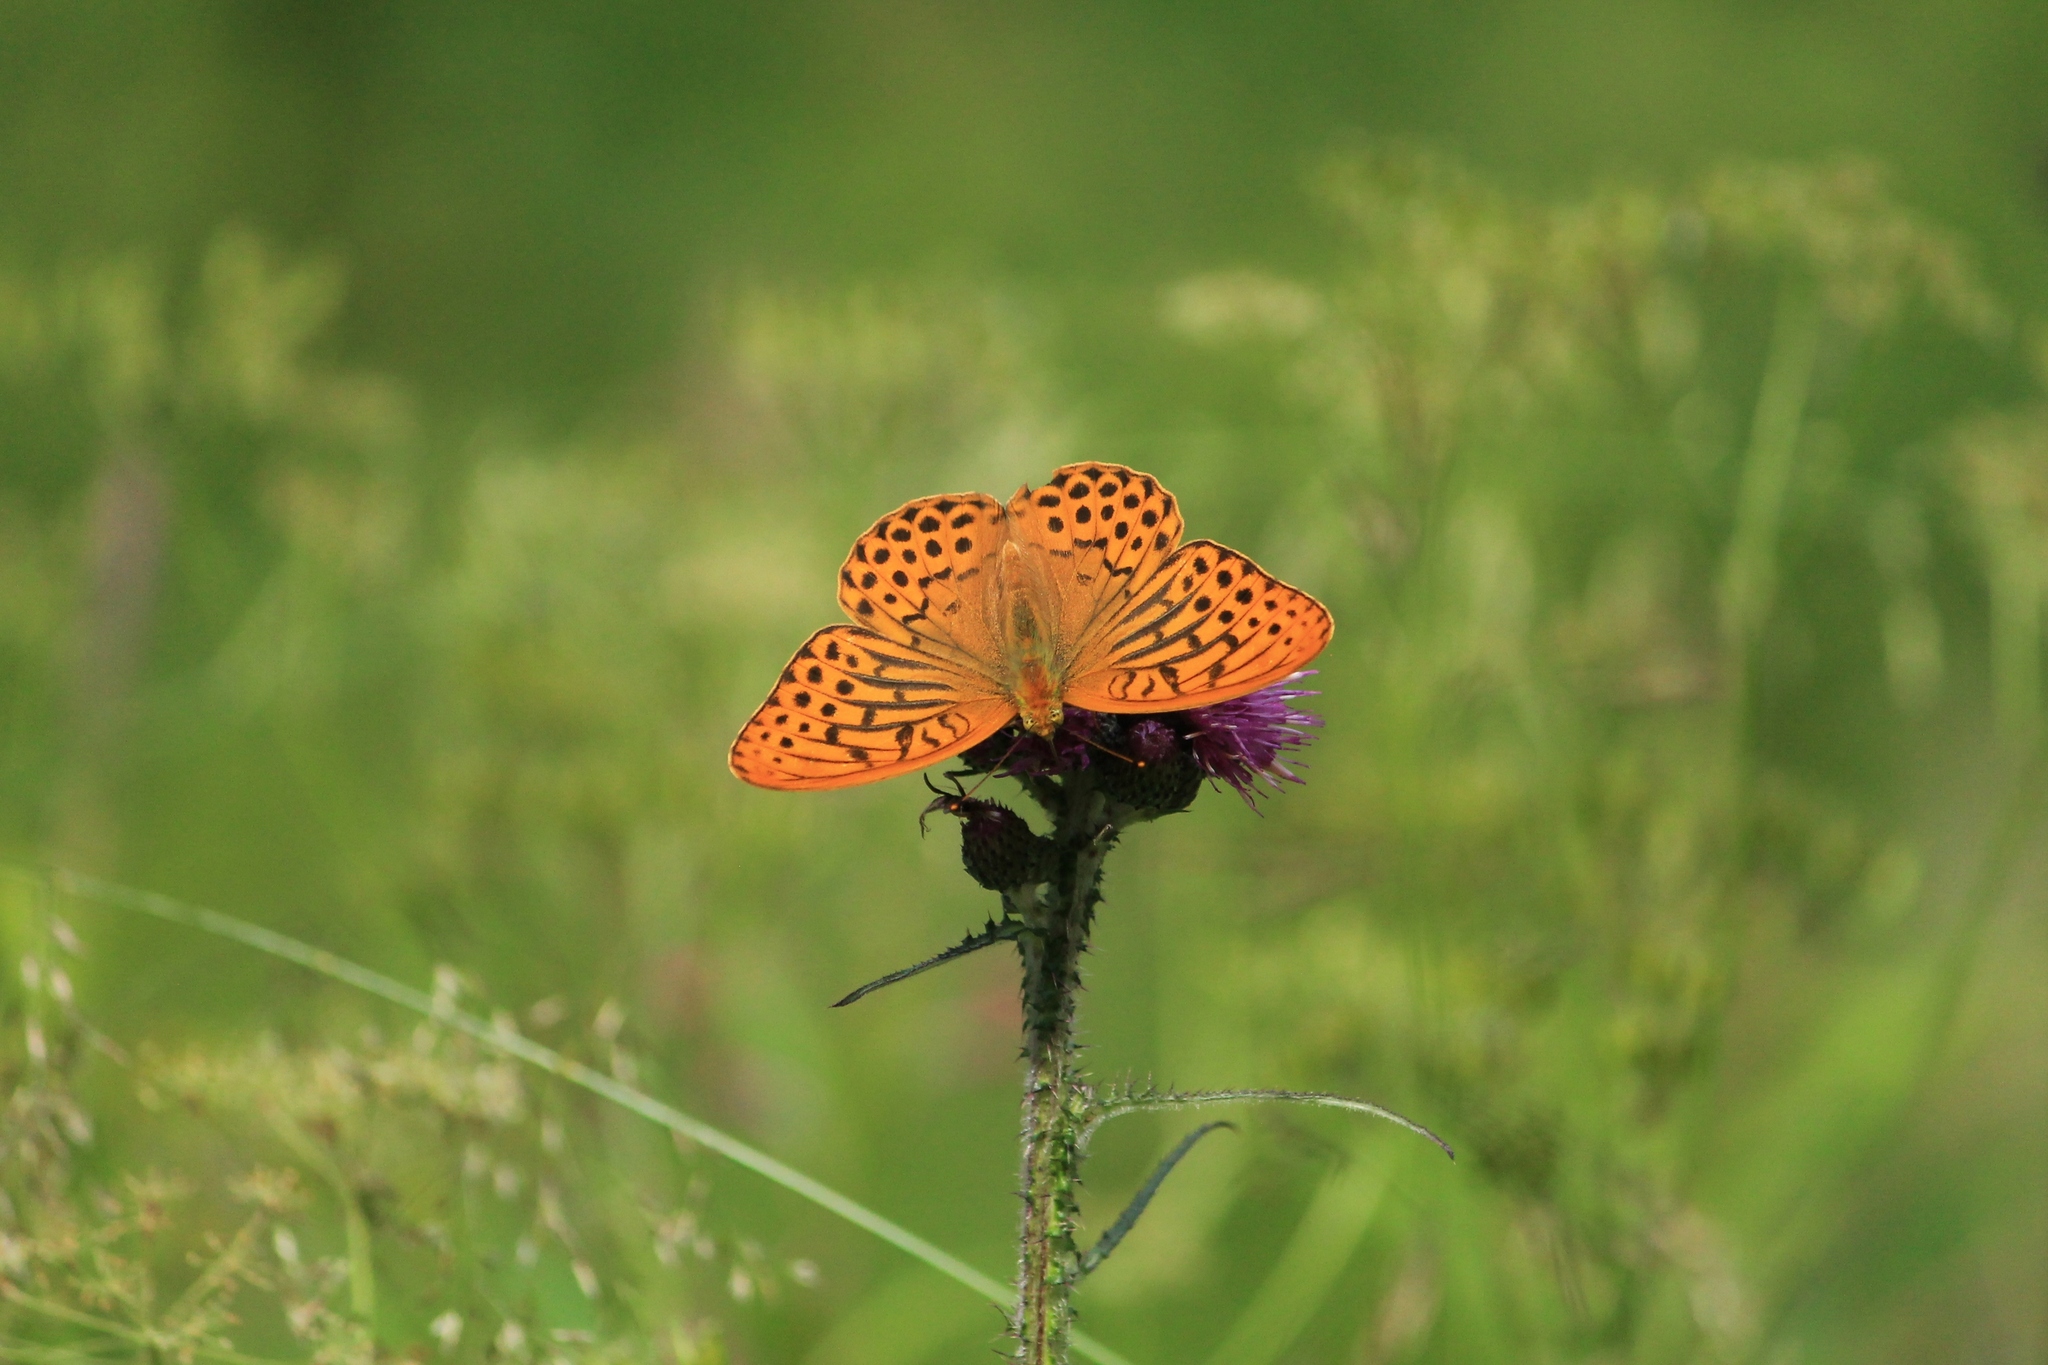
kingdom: Animalia
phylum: Arthropoda
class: Insecta
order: Lepidoptera
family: Nymphalidae
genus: Argynnis
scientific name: Argynnis paphia
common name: Silver-washed fritillary
